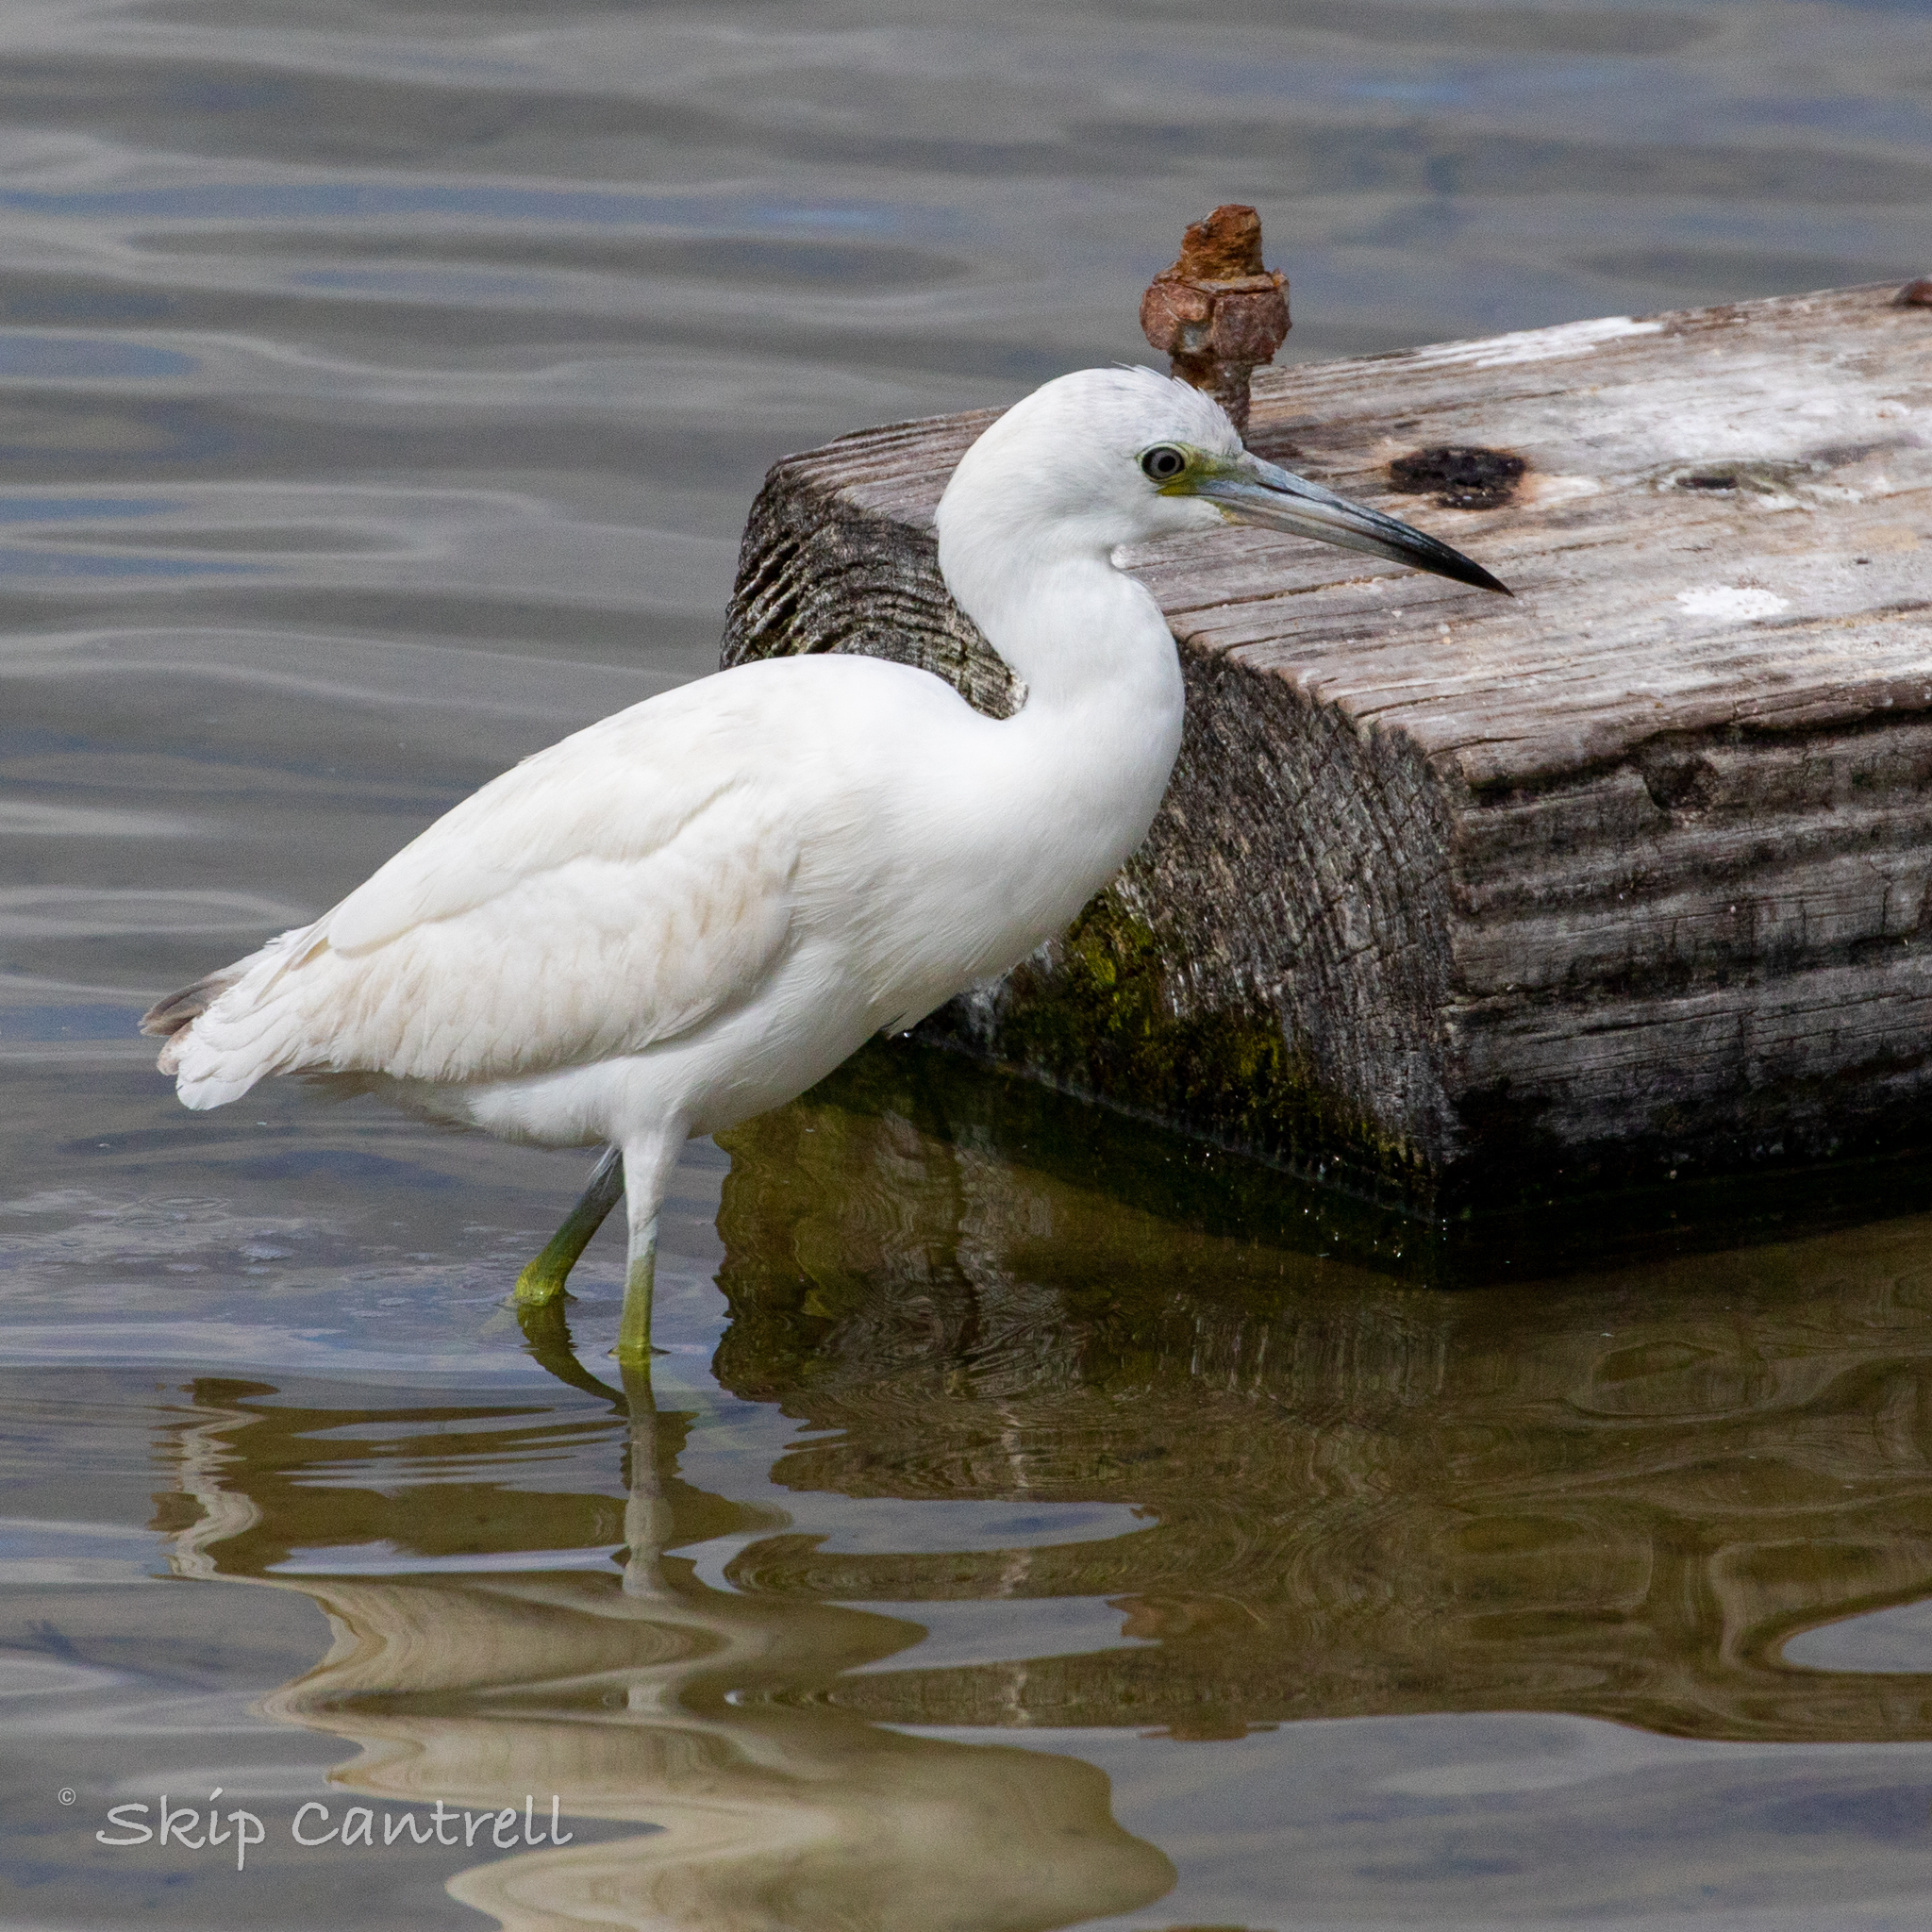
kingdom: Animalia
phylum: Chordata
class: Aves
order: Pelecaniformes
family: Ardeidae
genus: Egretta
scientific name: Egretta caerulea
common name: Little blue heron
